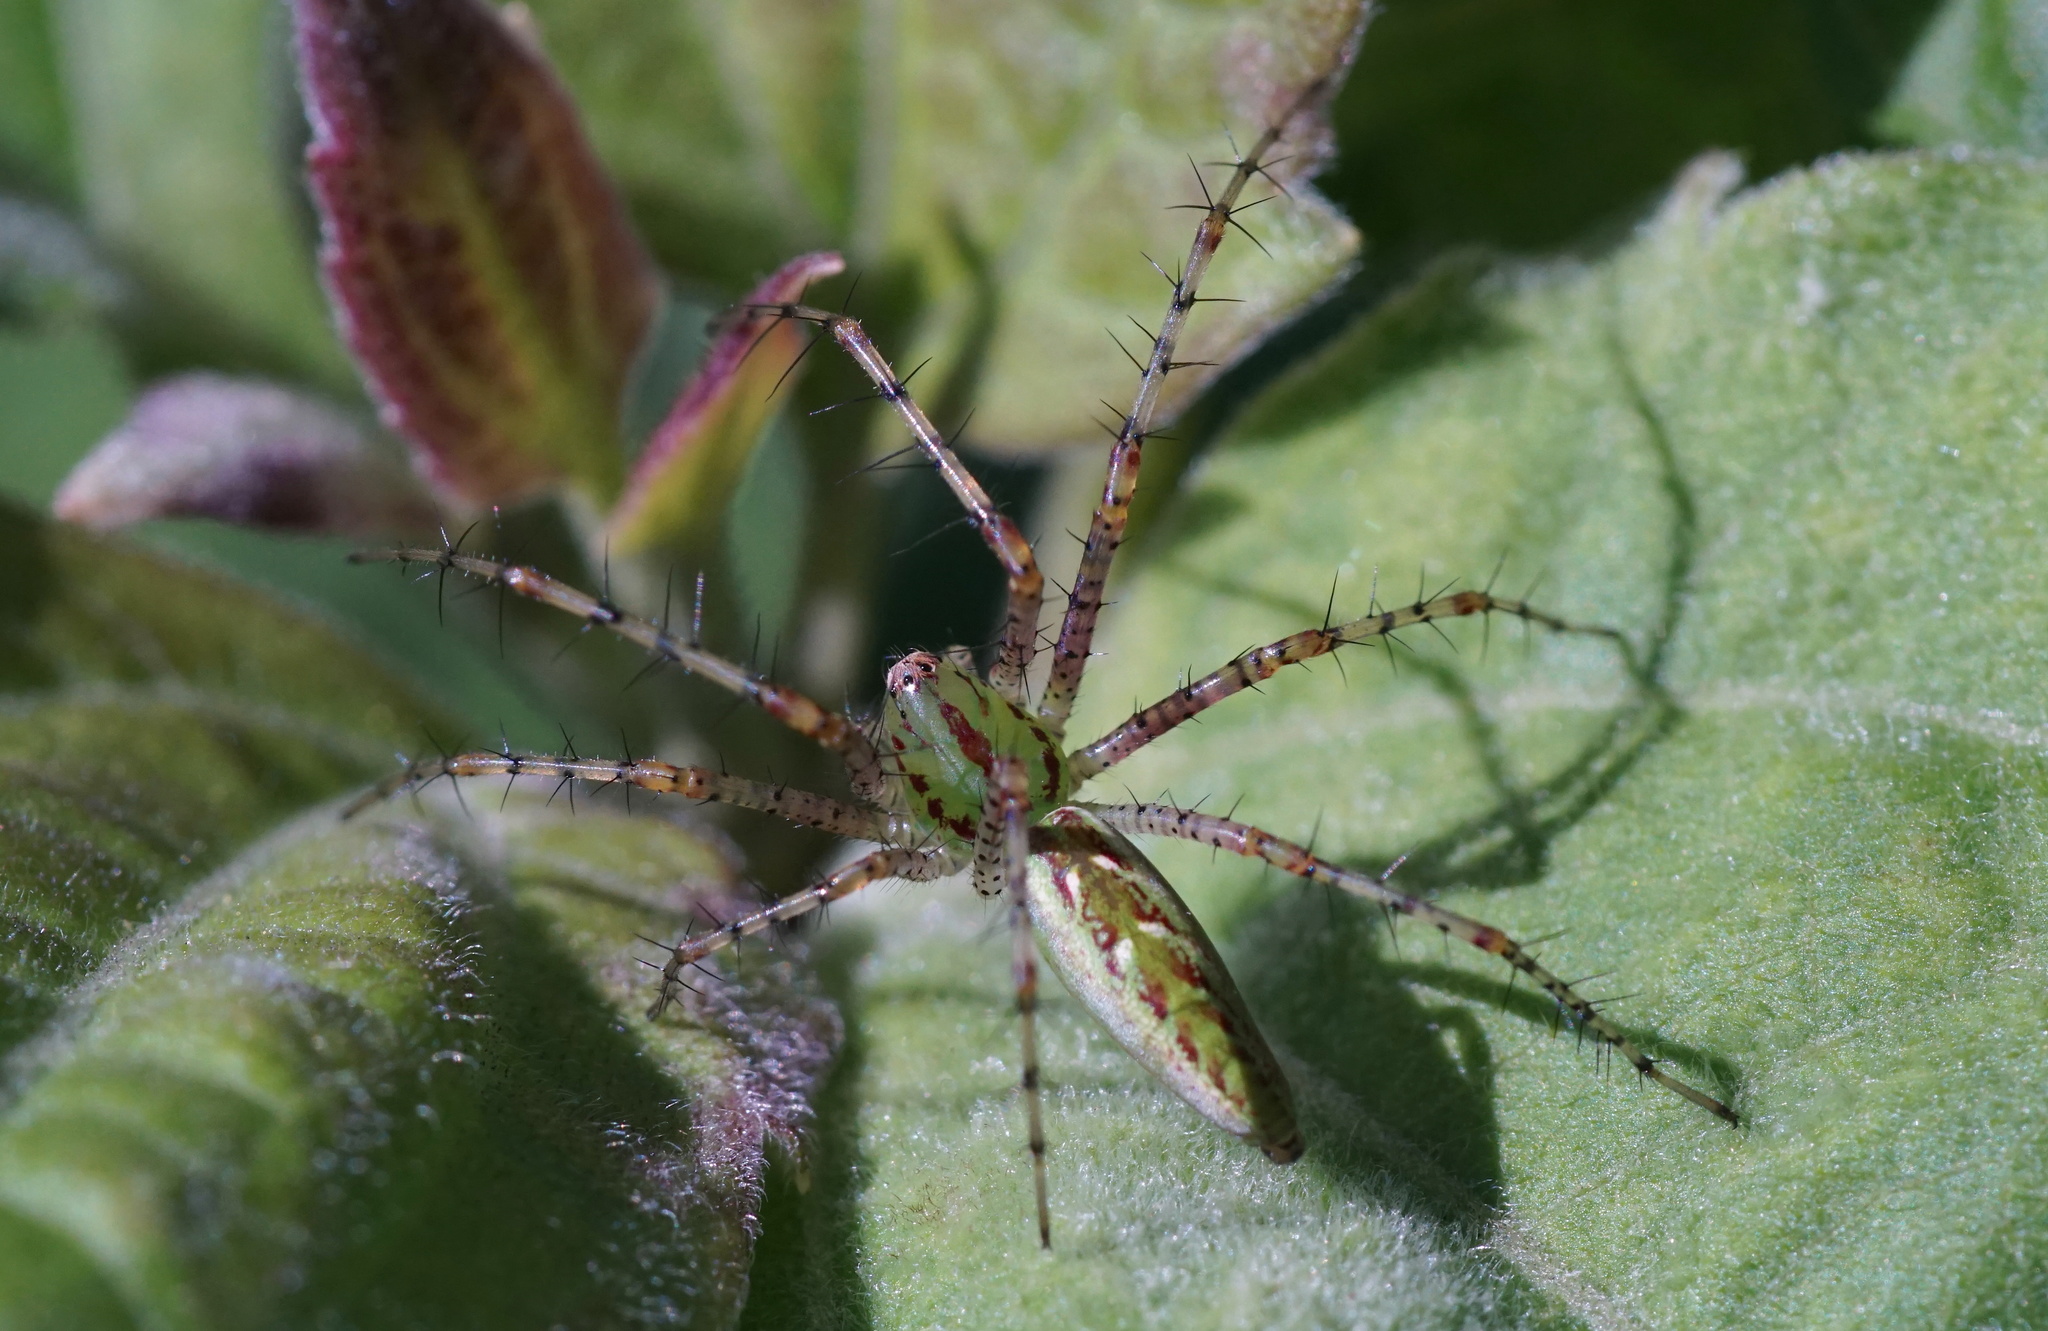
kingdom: Animalia
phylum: Arthropoda
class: Arachnida
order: Araneae
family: Oxyopidae
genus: Peucetia
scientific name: Peucetia viridans
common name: Lynx spiders
